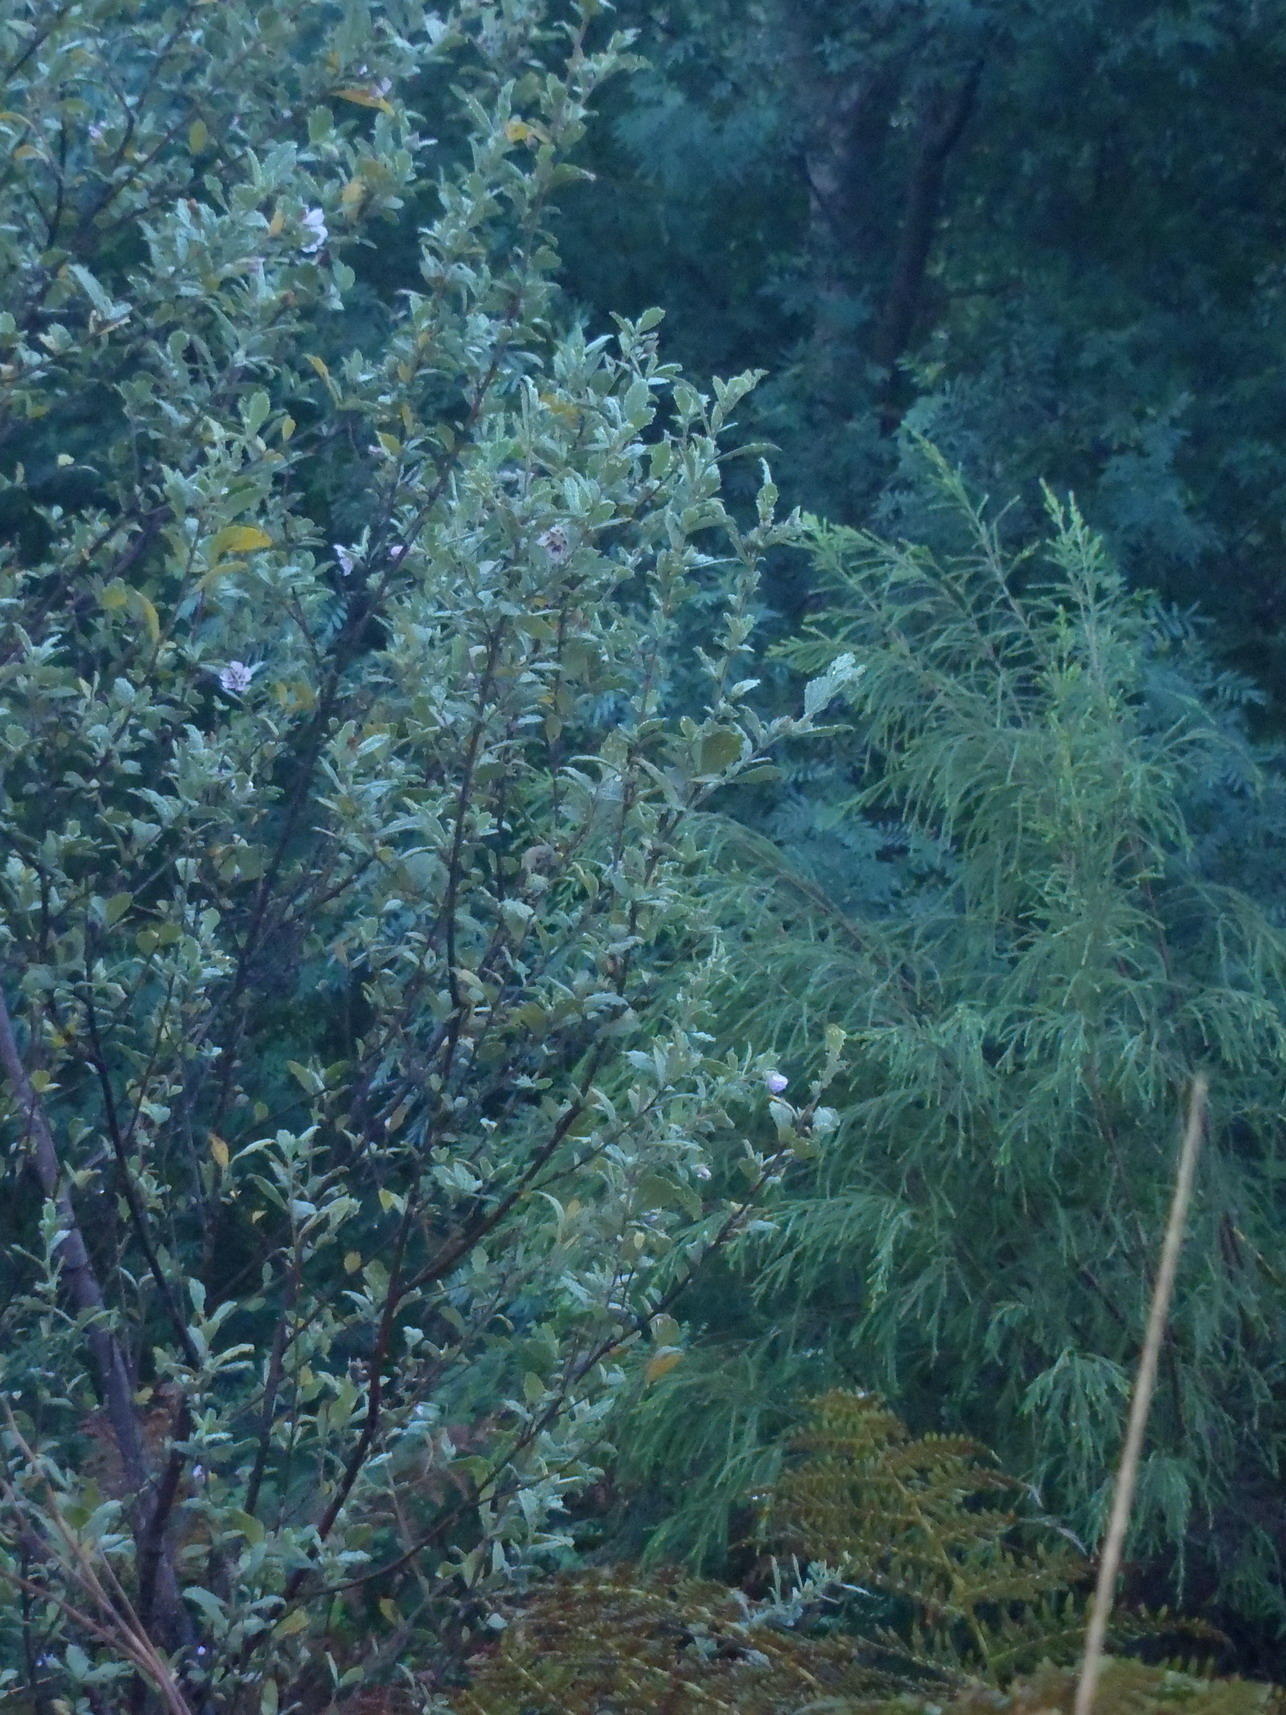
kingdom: Plantae
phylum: Tracheophyta
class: Magnoliopsida
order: Malvales
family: Malvaceae
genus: Anisodontea
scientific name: Anisodontea scabrosa
